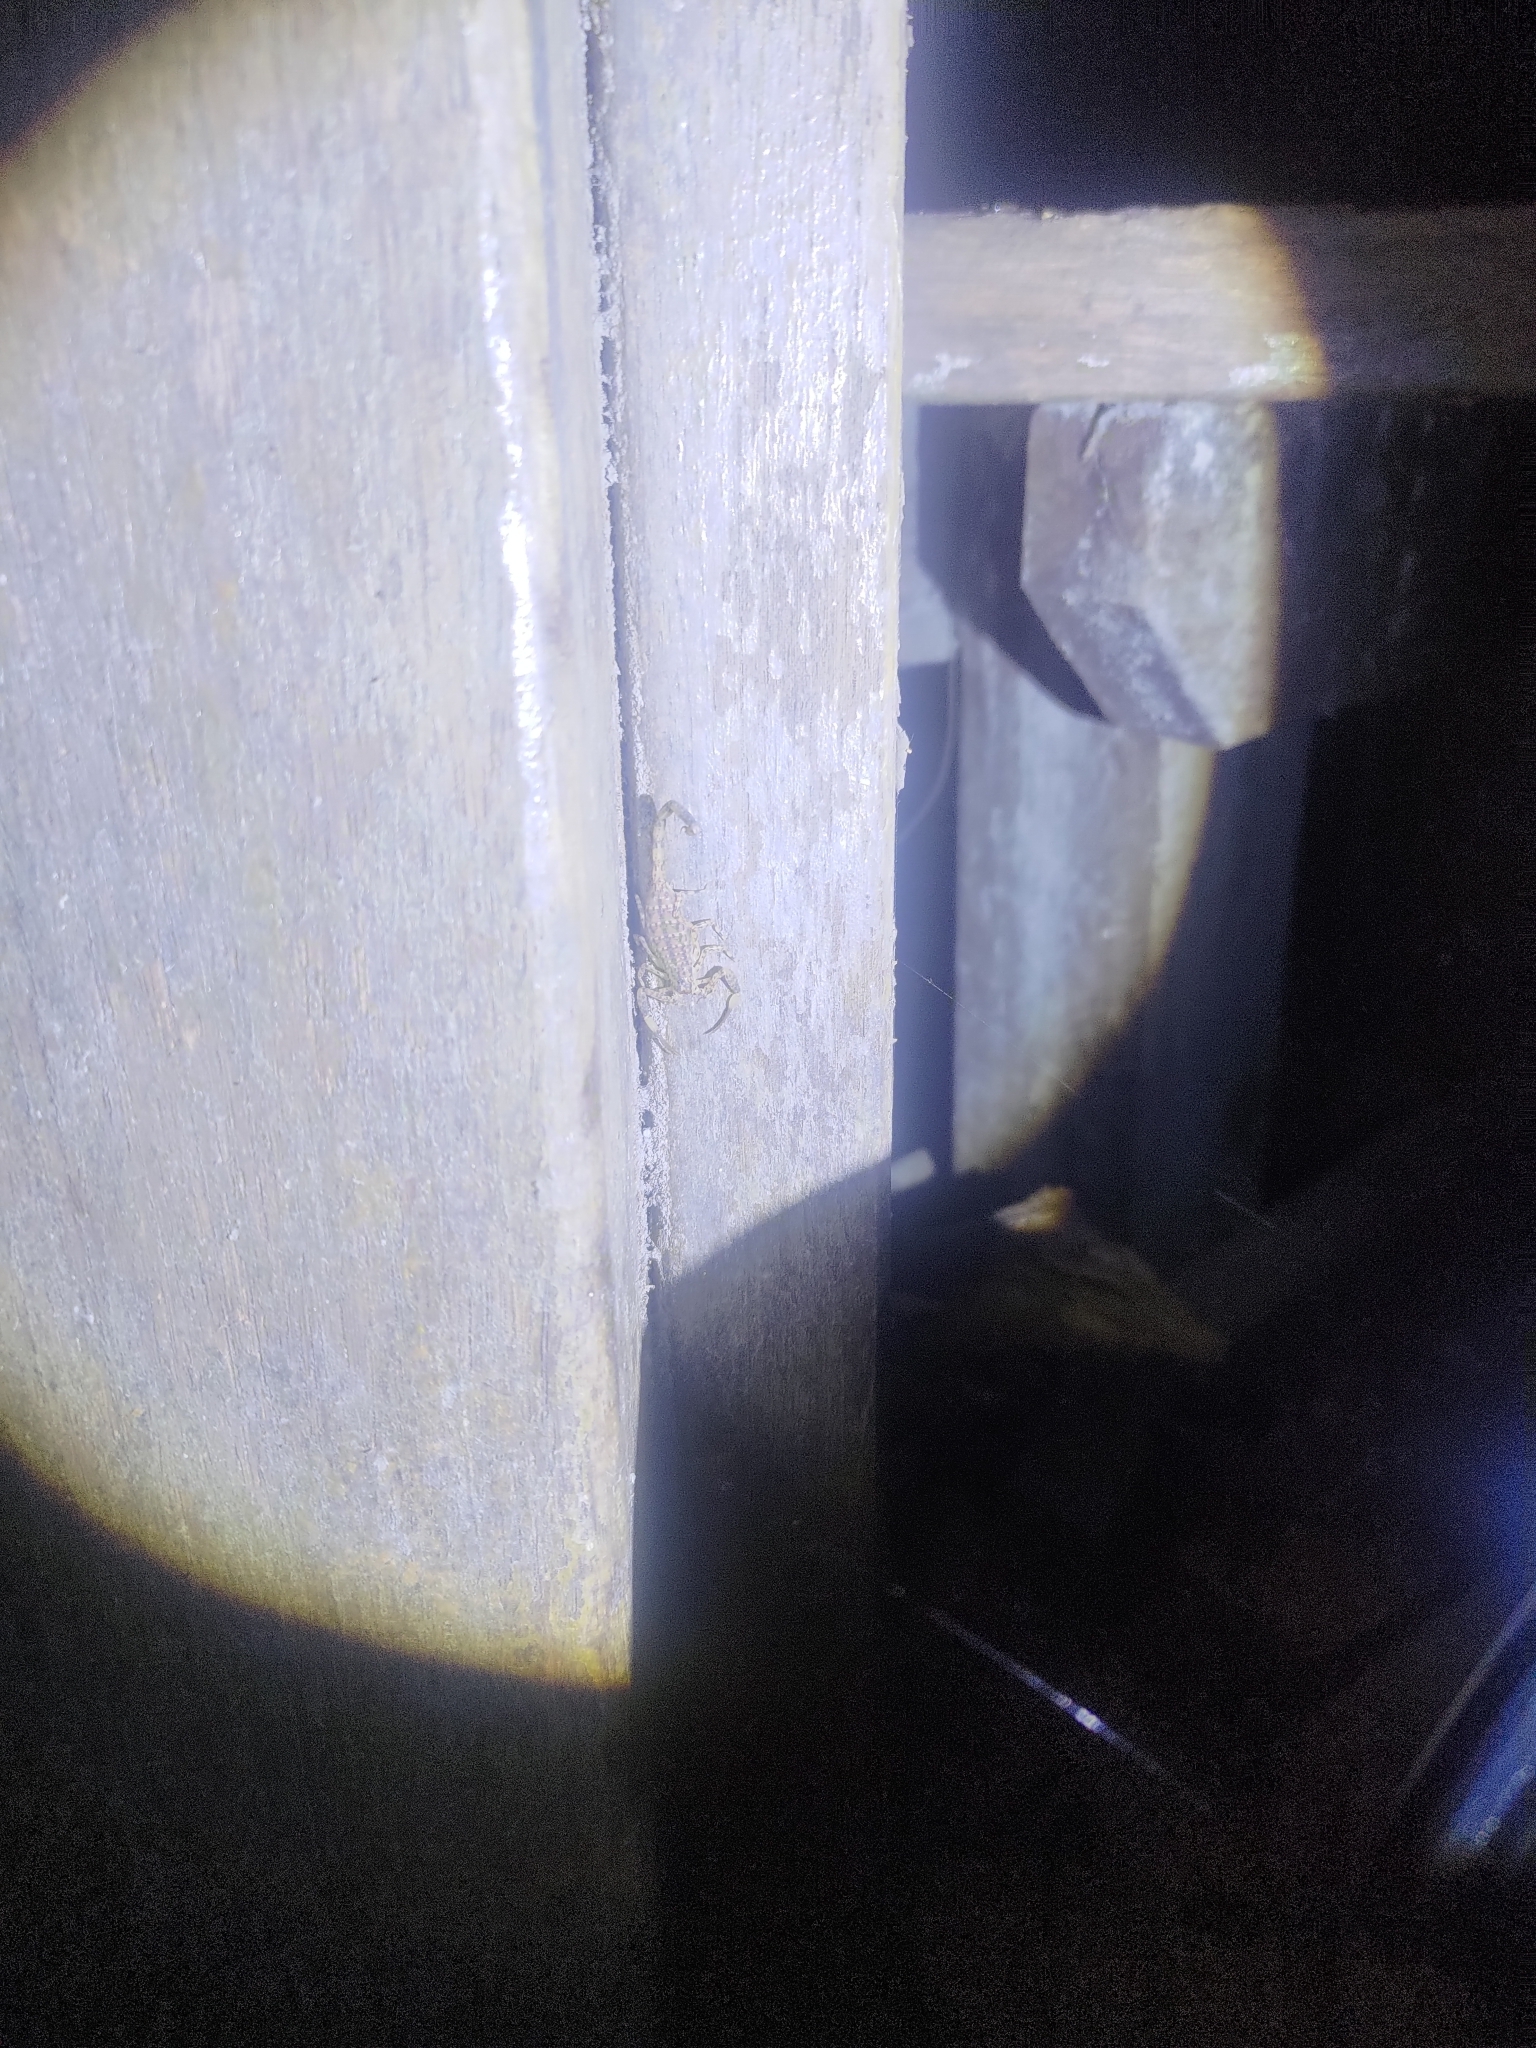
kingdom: Animalia
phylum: Arthropoda
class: Arachnida
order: Scorpiones
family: Buthidae
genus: Isometrus
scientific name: Isometrus maculatus
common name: Scorpions
